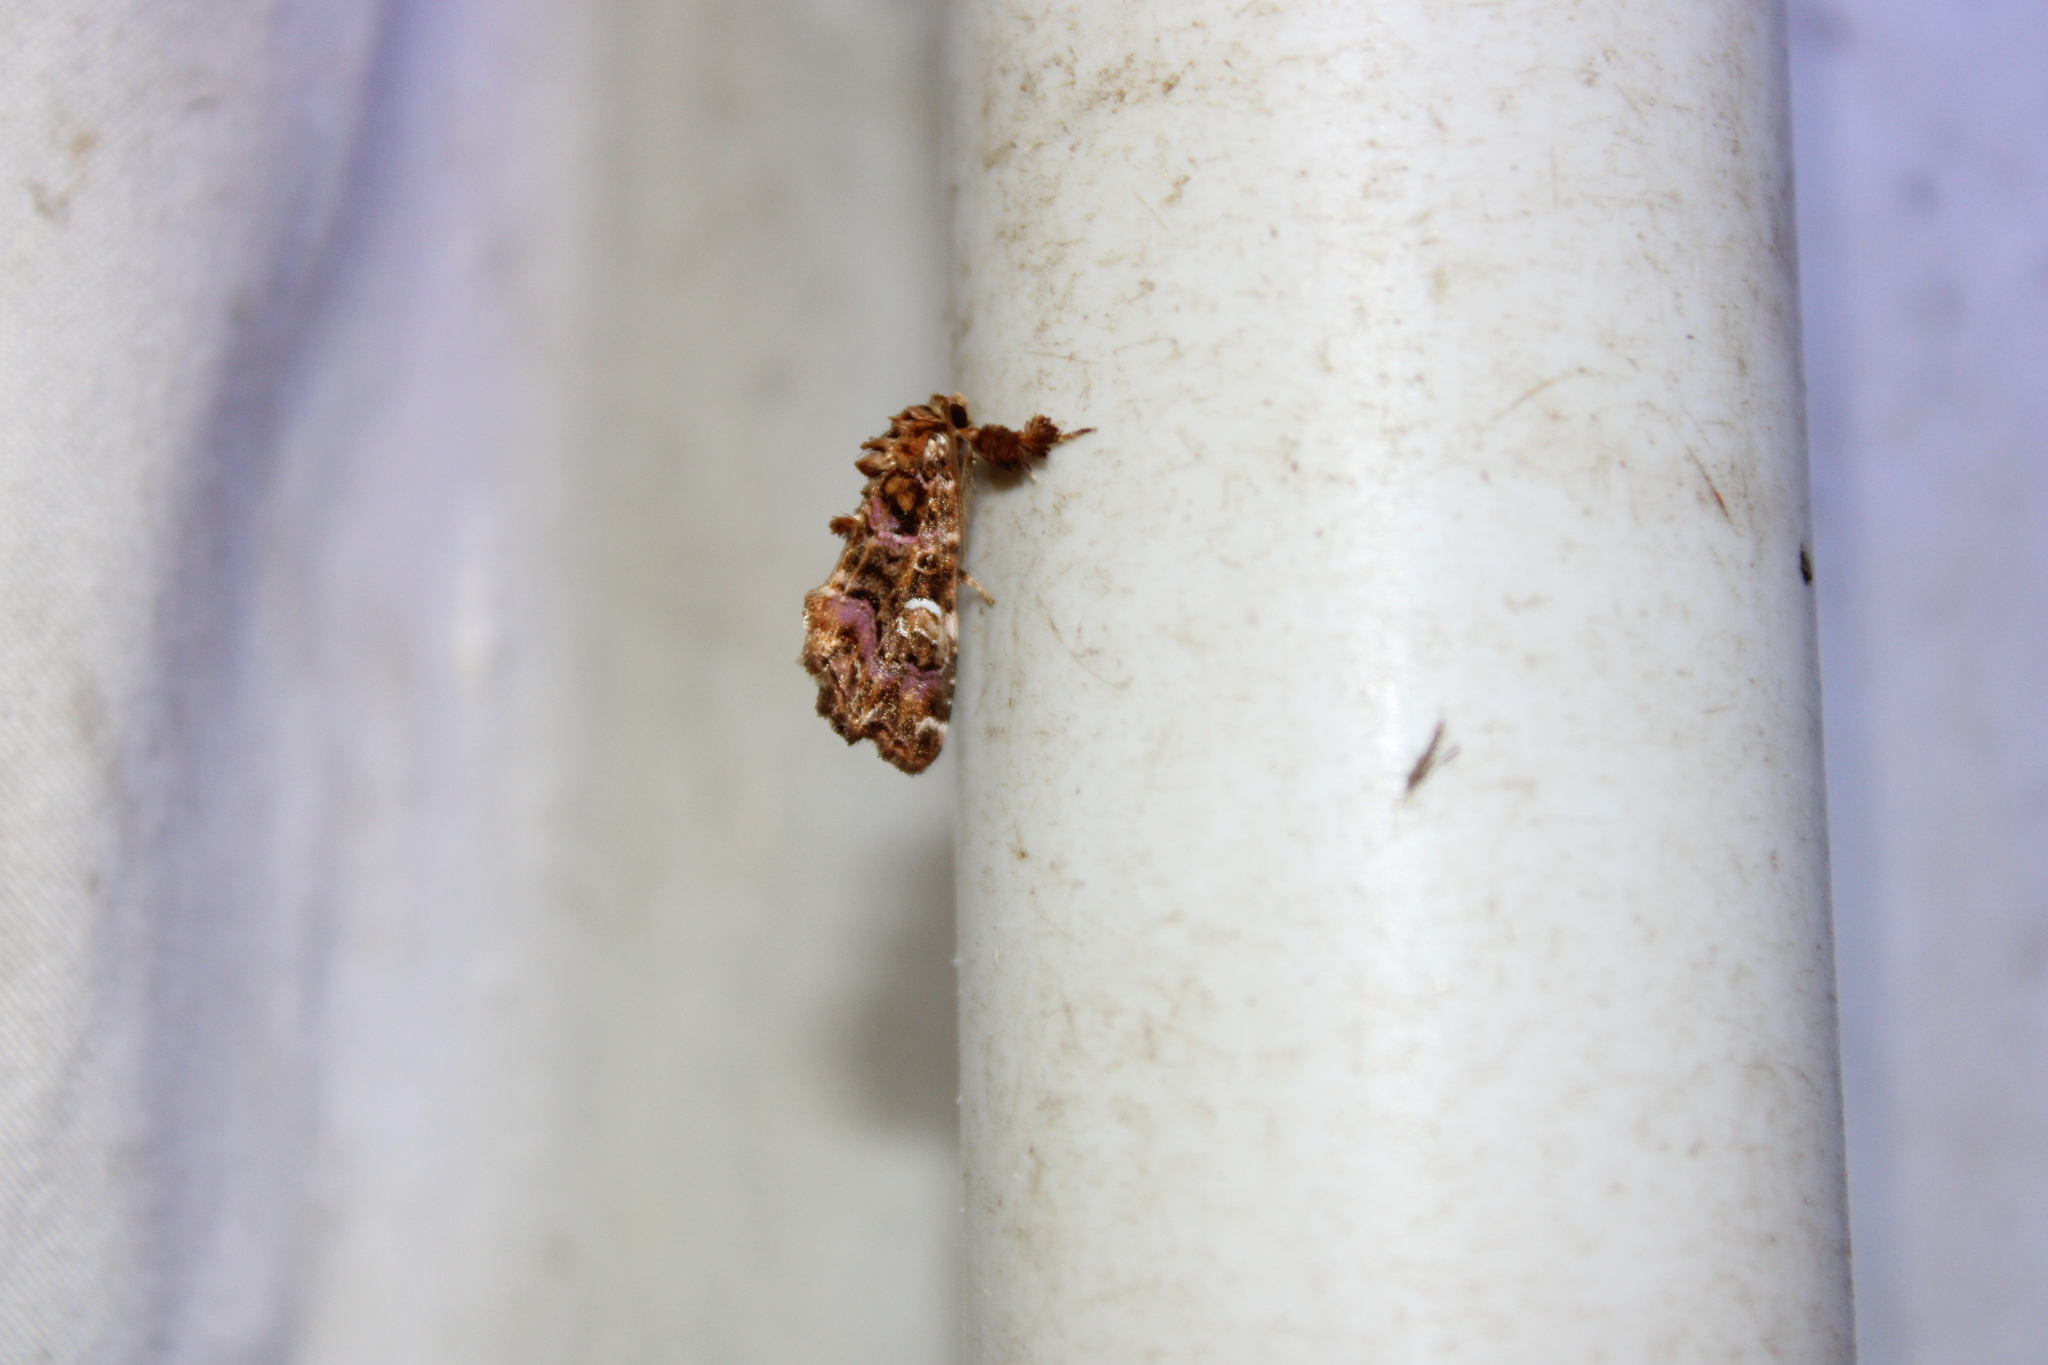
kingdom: Animalia
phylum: Arthropoda
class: Insecta
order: Lepidoptera
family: Noctuidae
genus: Callopistria
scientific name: Callopistria mollissima
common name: Pink-shaded fern moth
